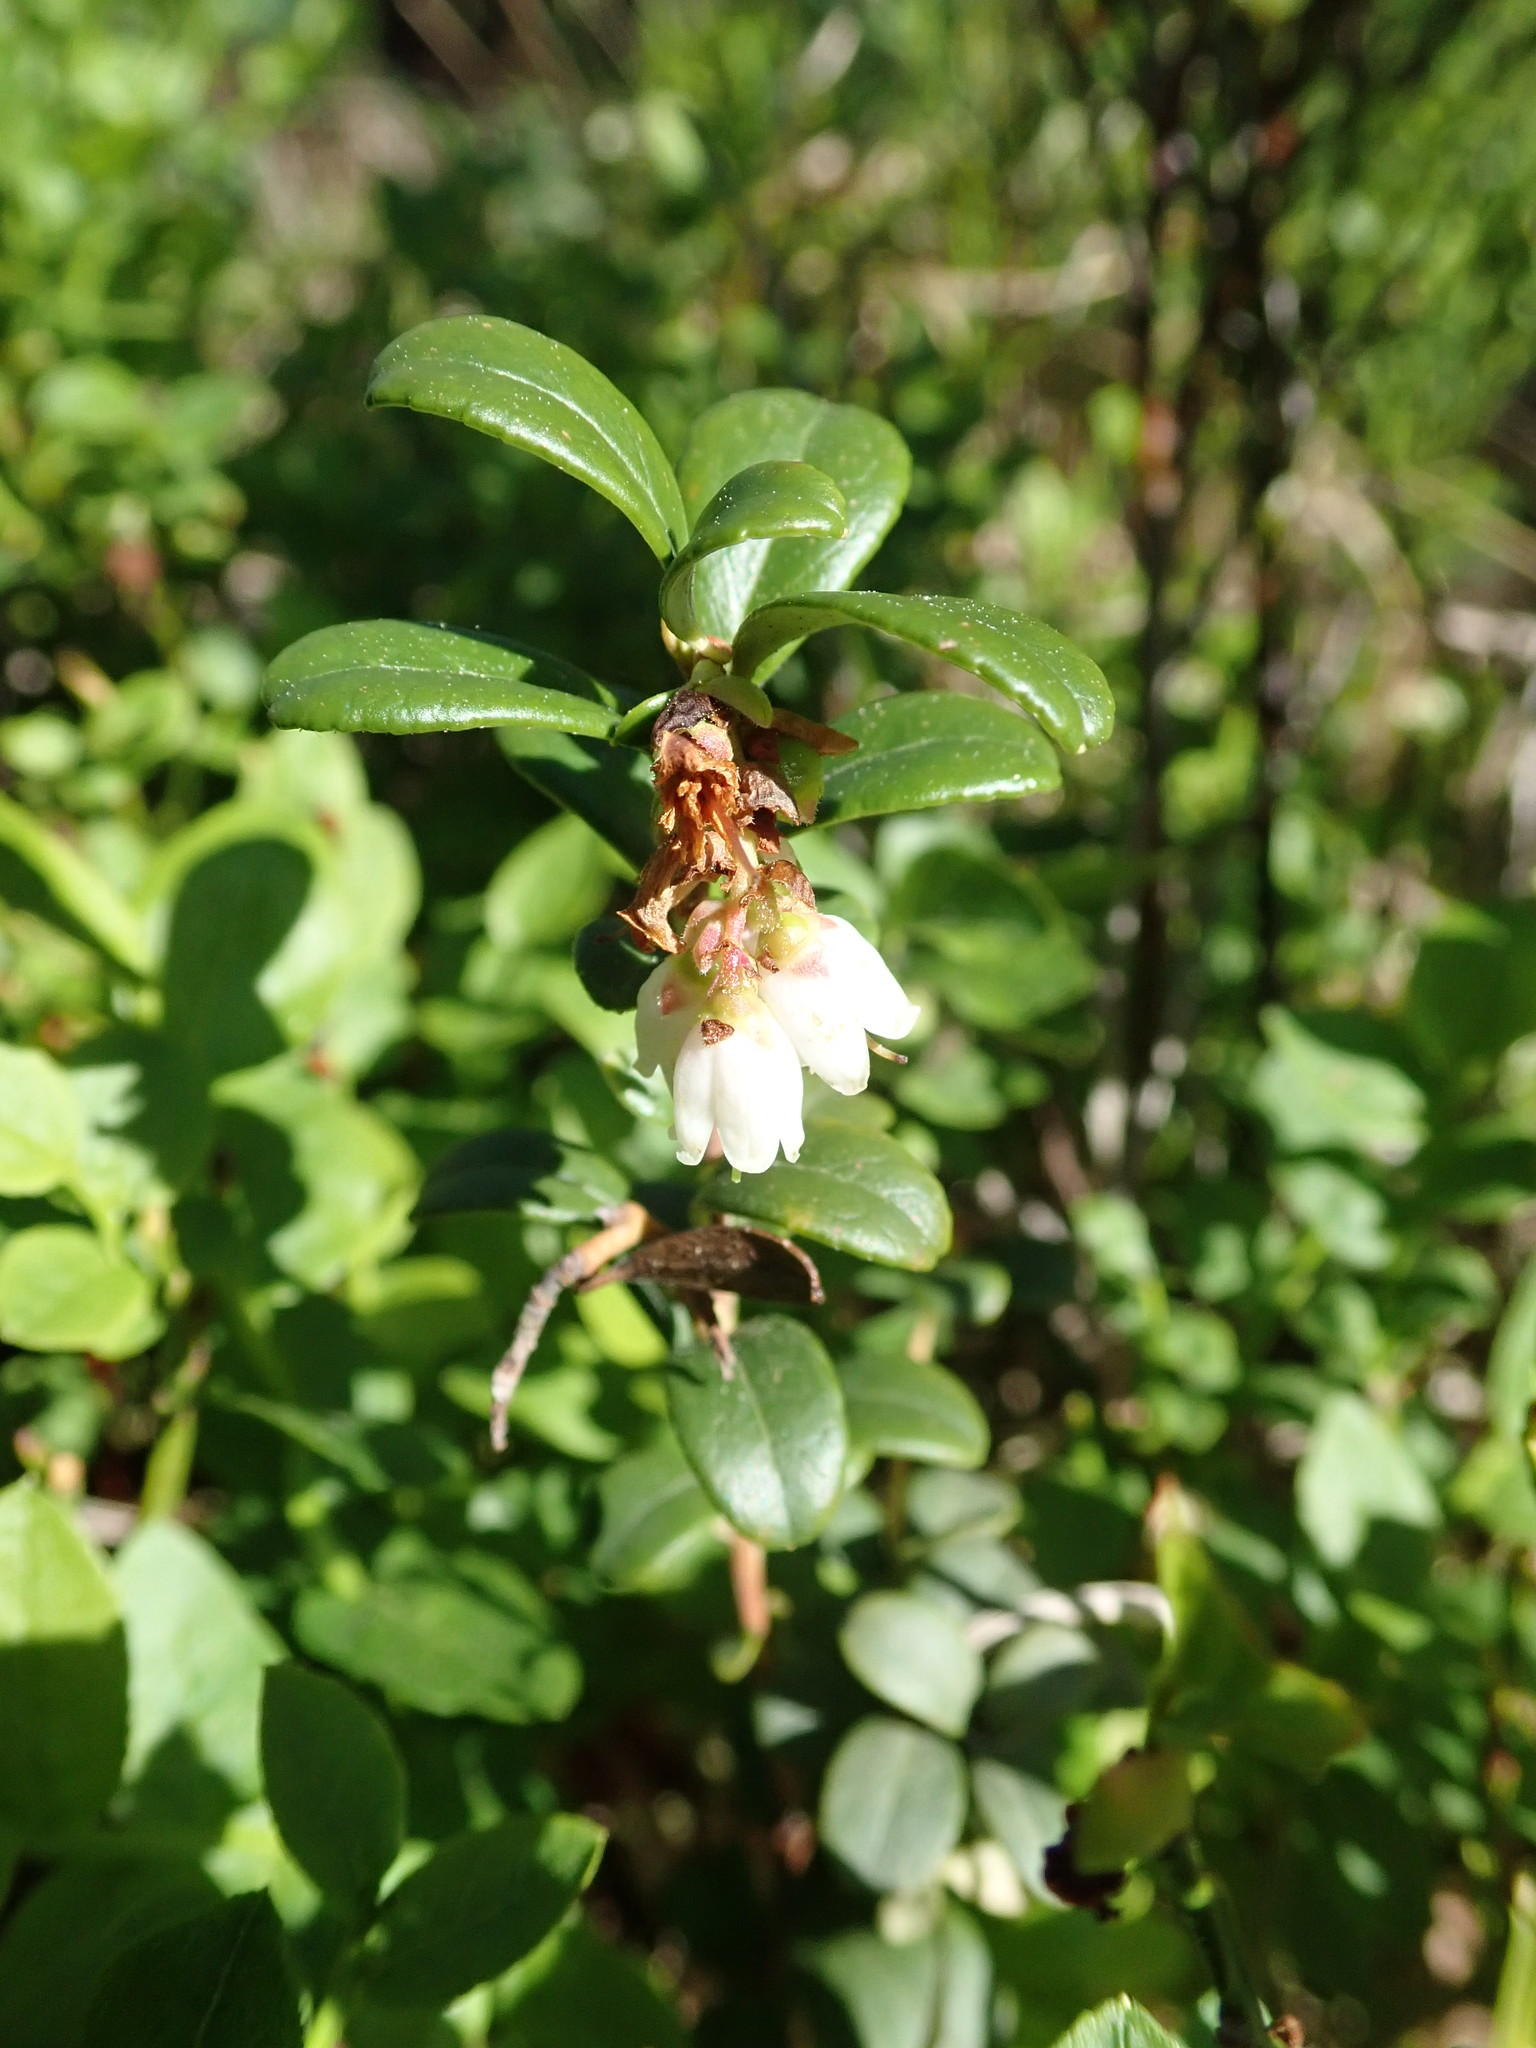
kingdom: Plantae
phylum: Tracheophyta
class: Magnoliopsida
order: Ericales
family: Ericaceae
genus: Vaccinium
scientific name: Vaccinium vitis-idaea
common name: Cowberry
